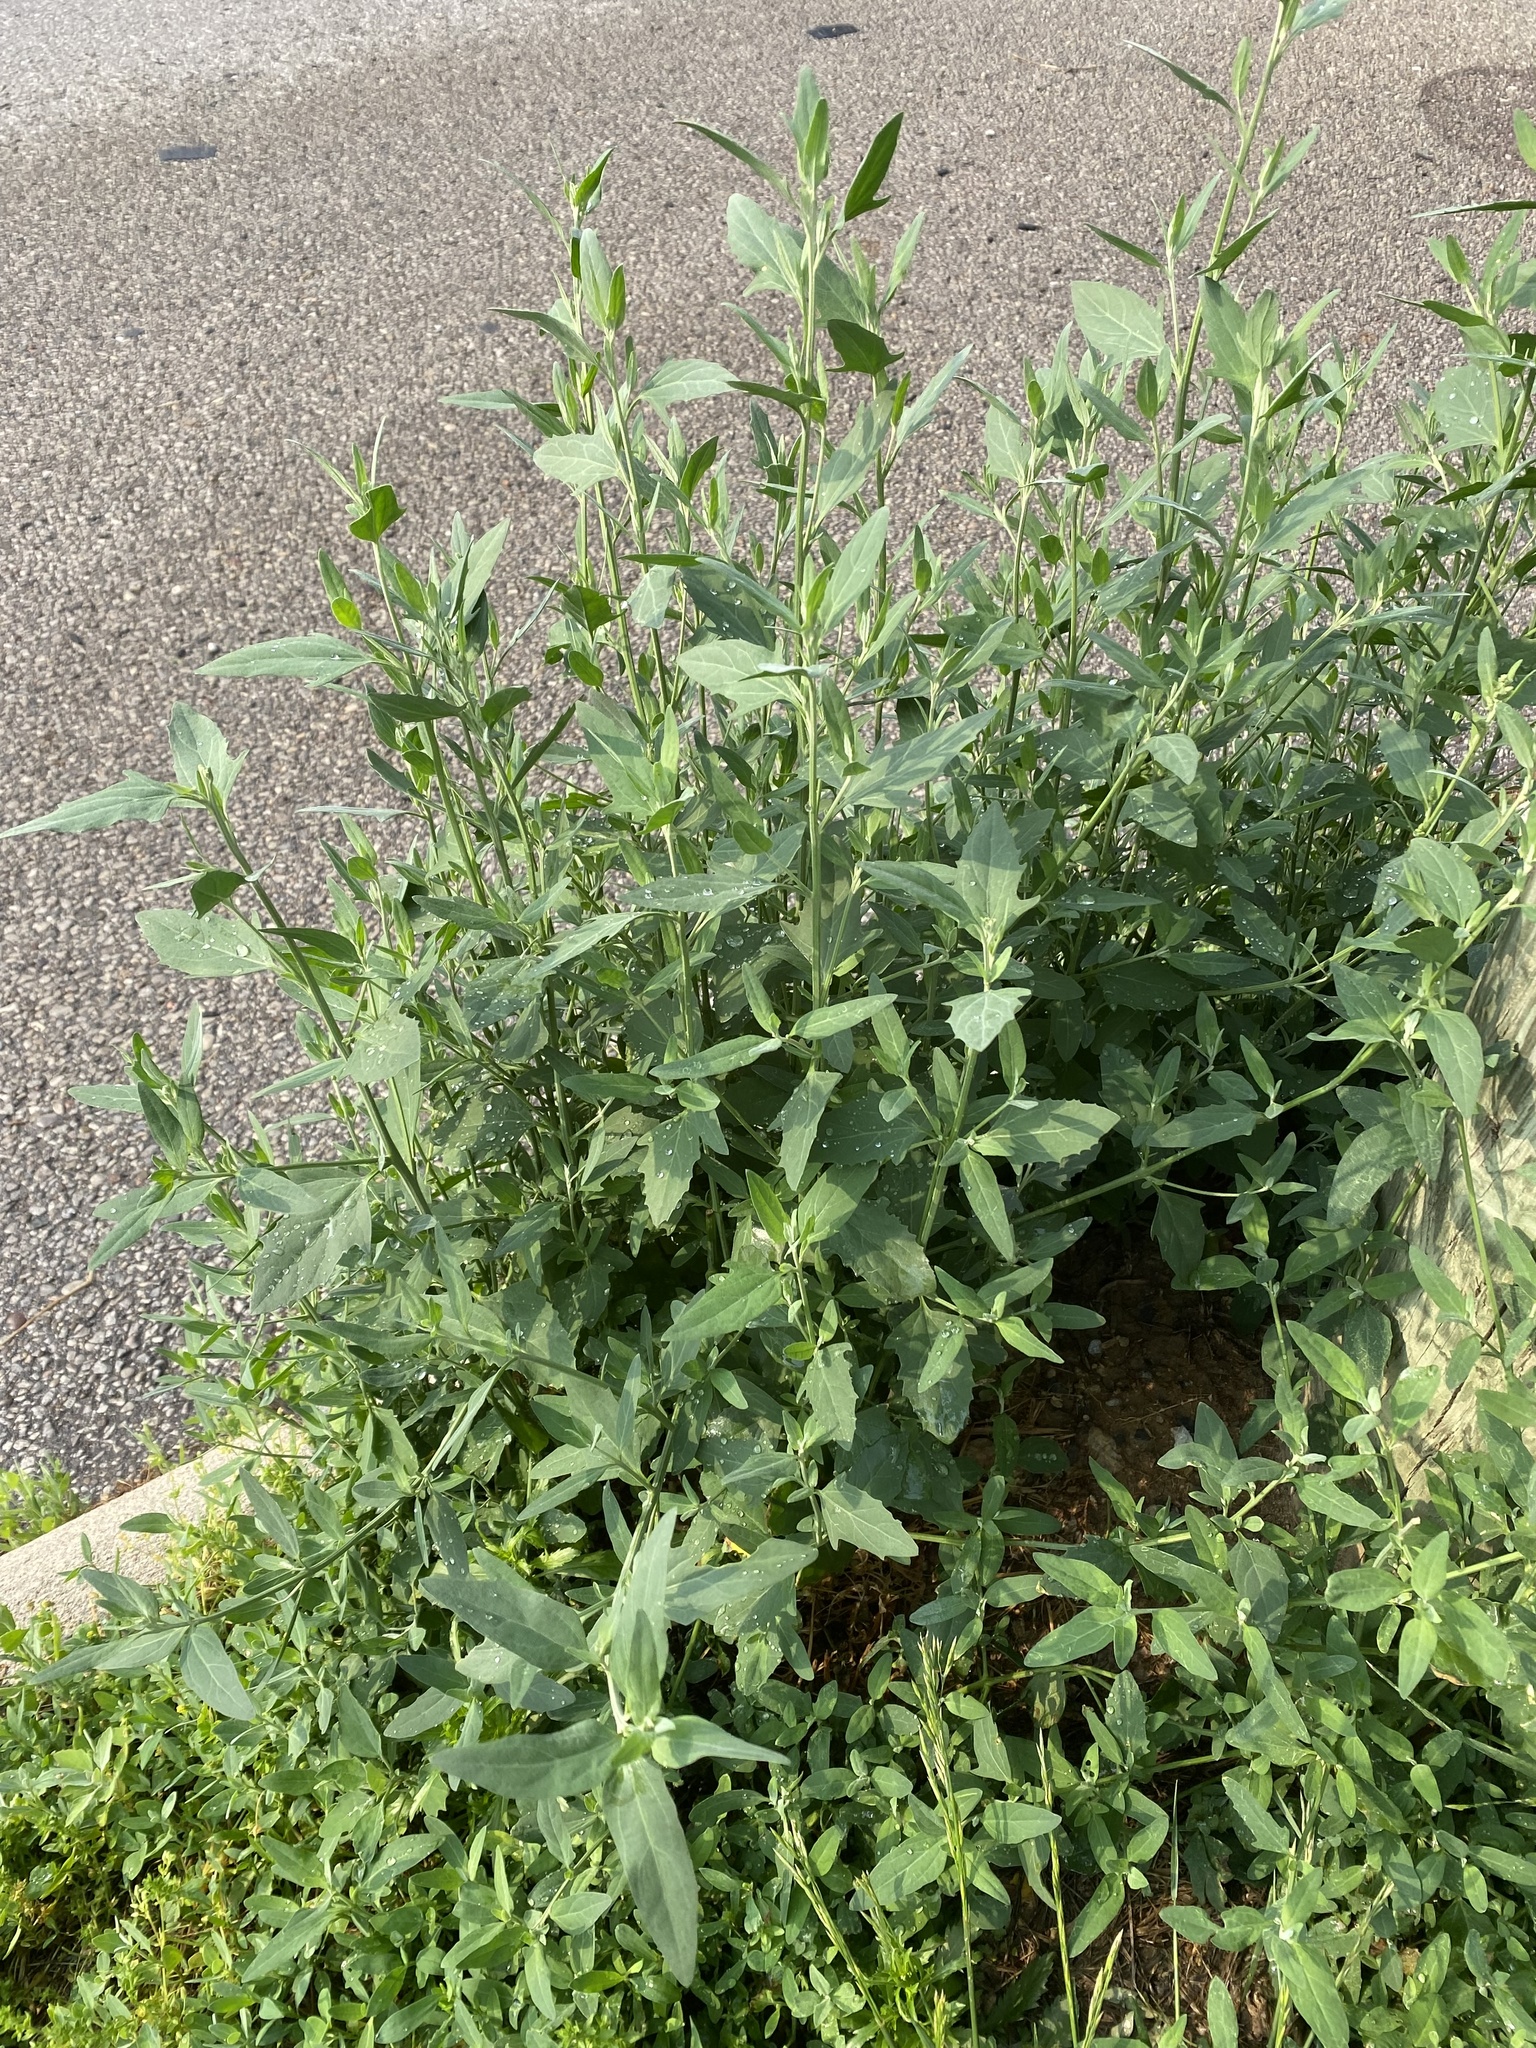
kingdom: Plantae
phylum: Tracheophyta
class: Magnoliopsida
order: Caryophyllales
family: Amaranthaceae
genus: Chenopodium
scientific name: Chenopodium album
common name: Fat-hen
